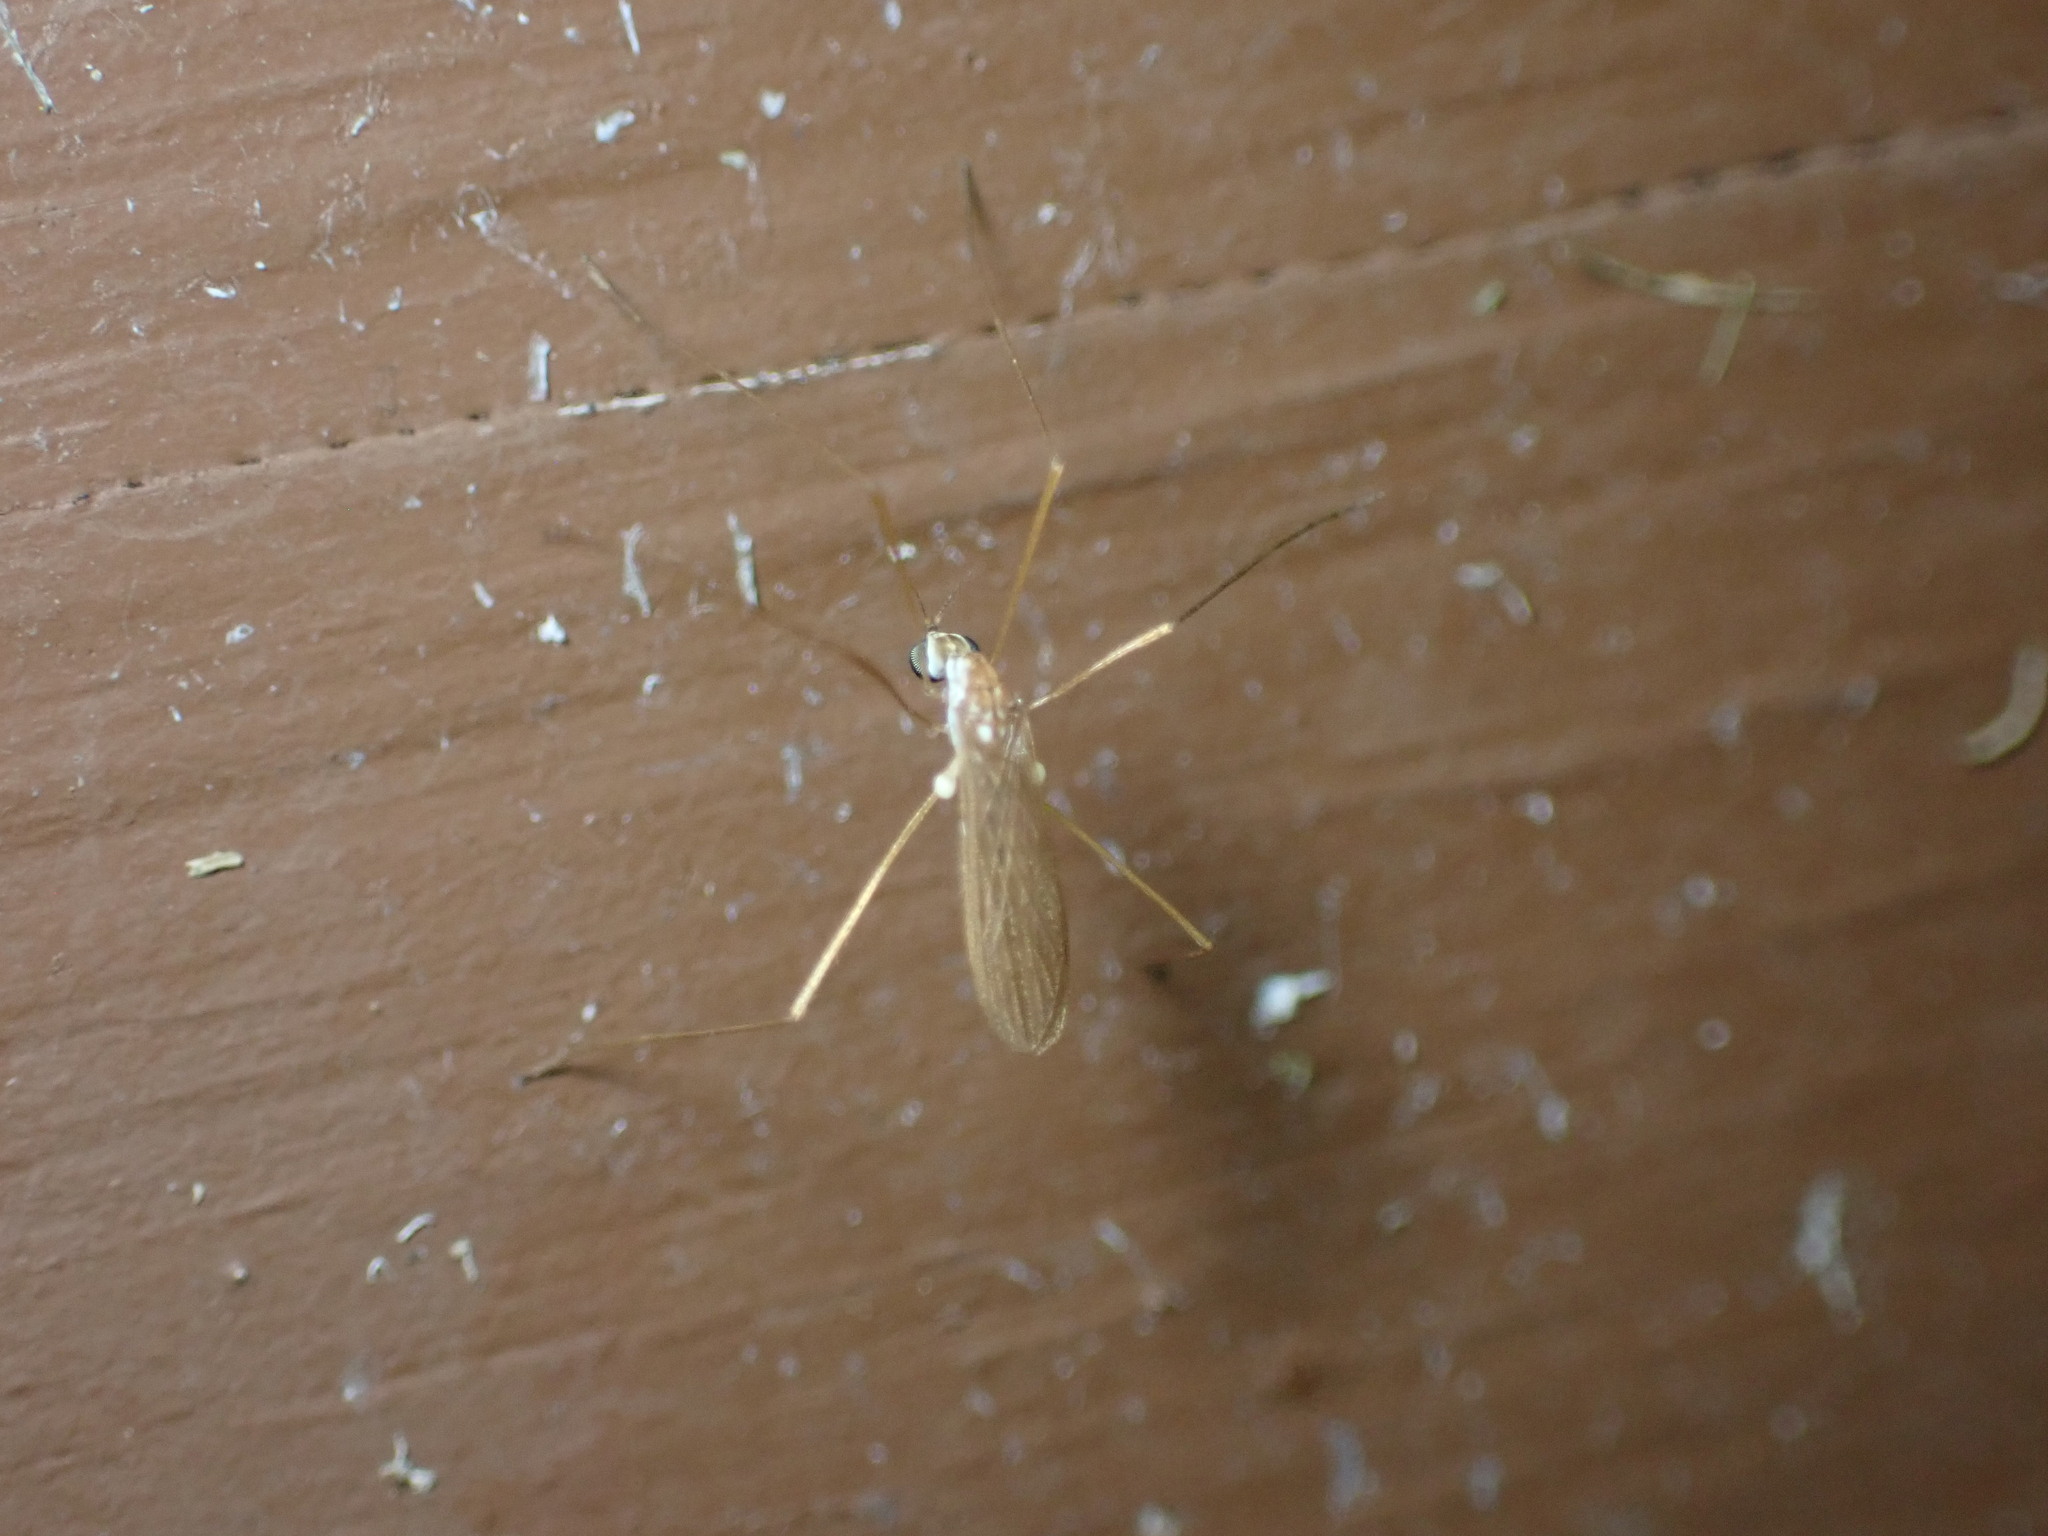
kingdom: Animalia
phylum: Arthropoda
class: Insecta
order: Diptera
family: Limoniidae
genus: Erioptera
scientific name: Erioptera vespertina
